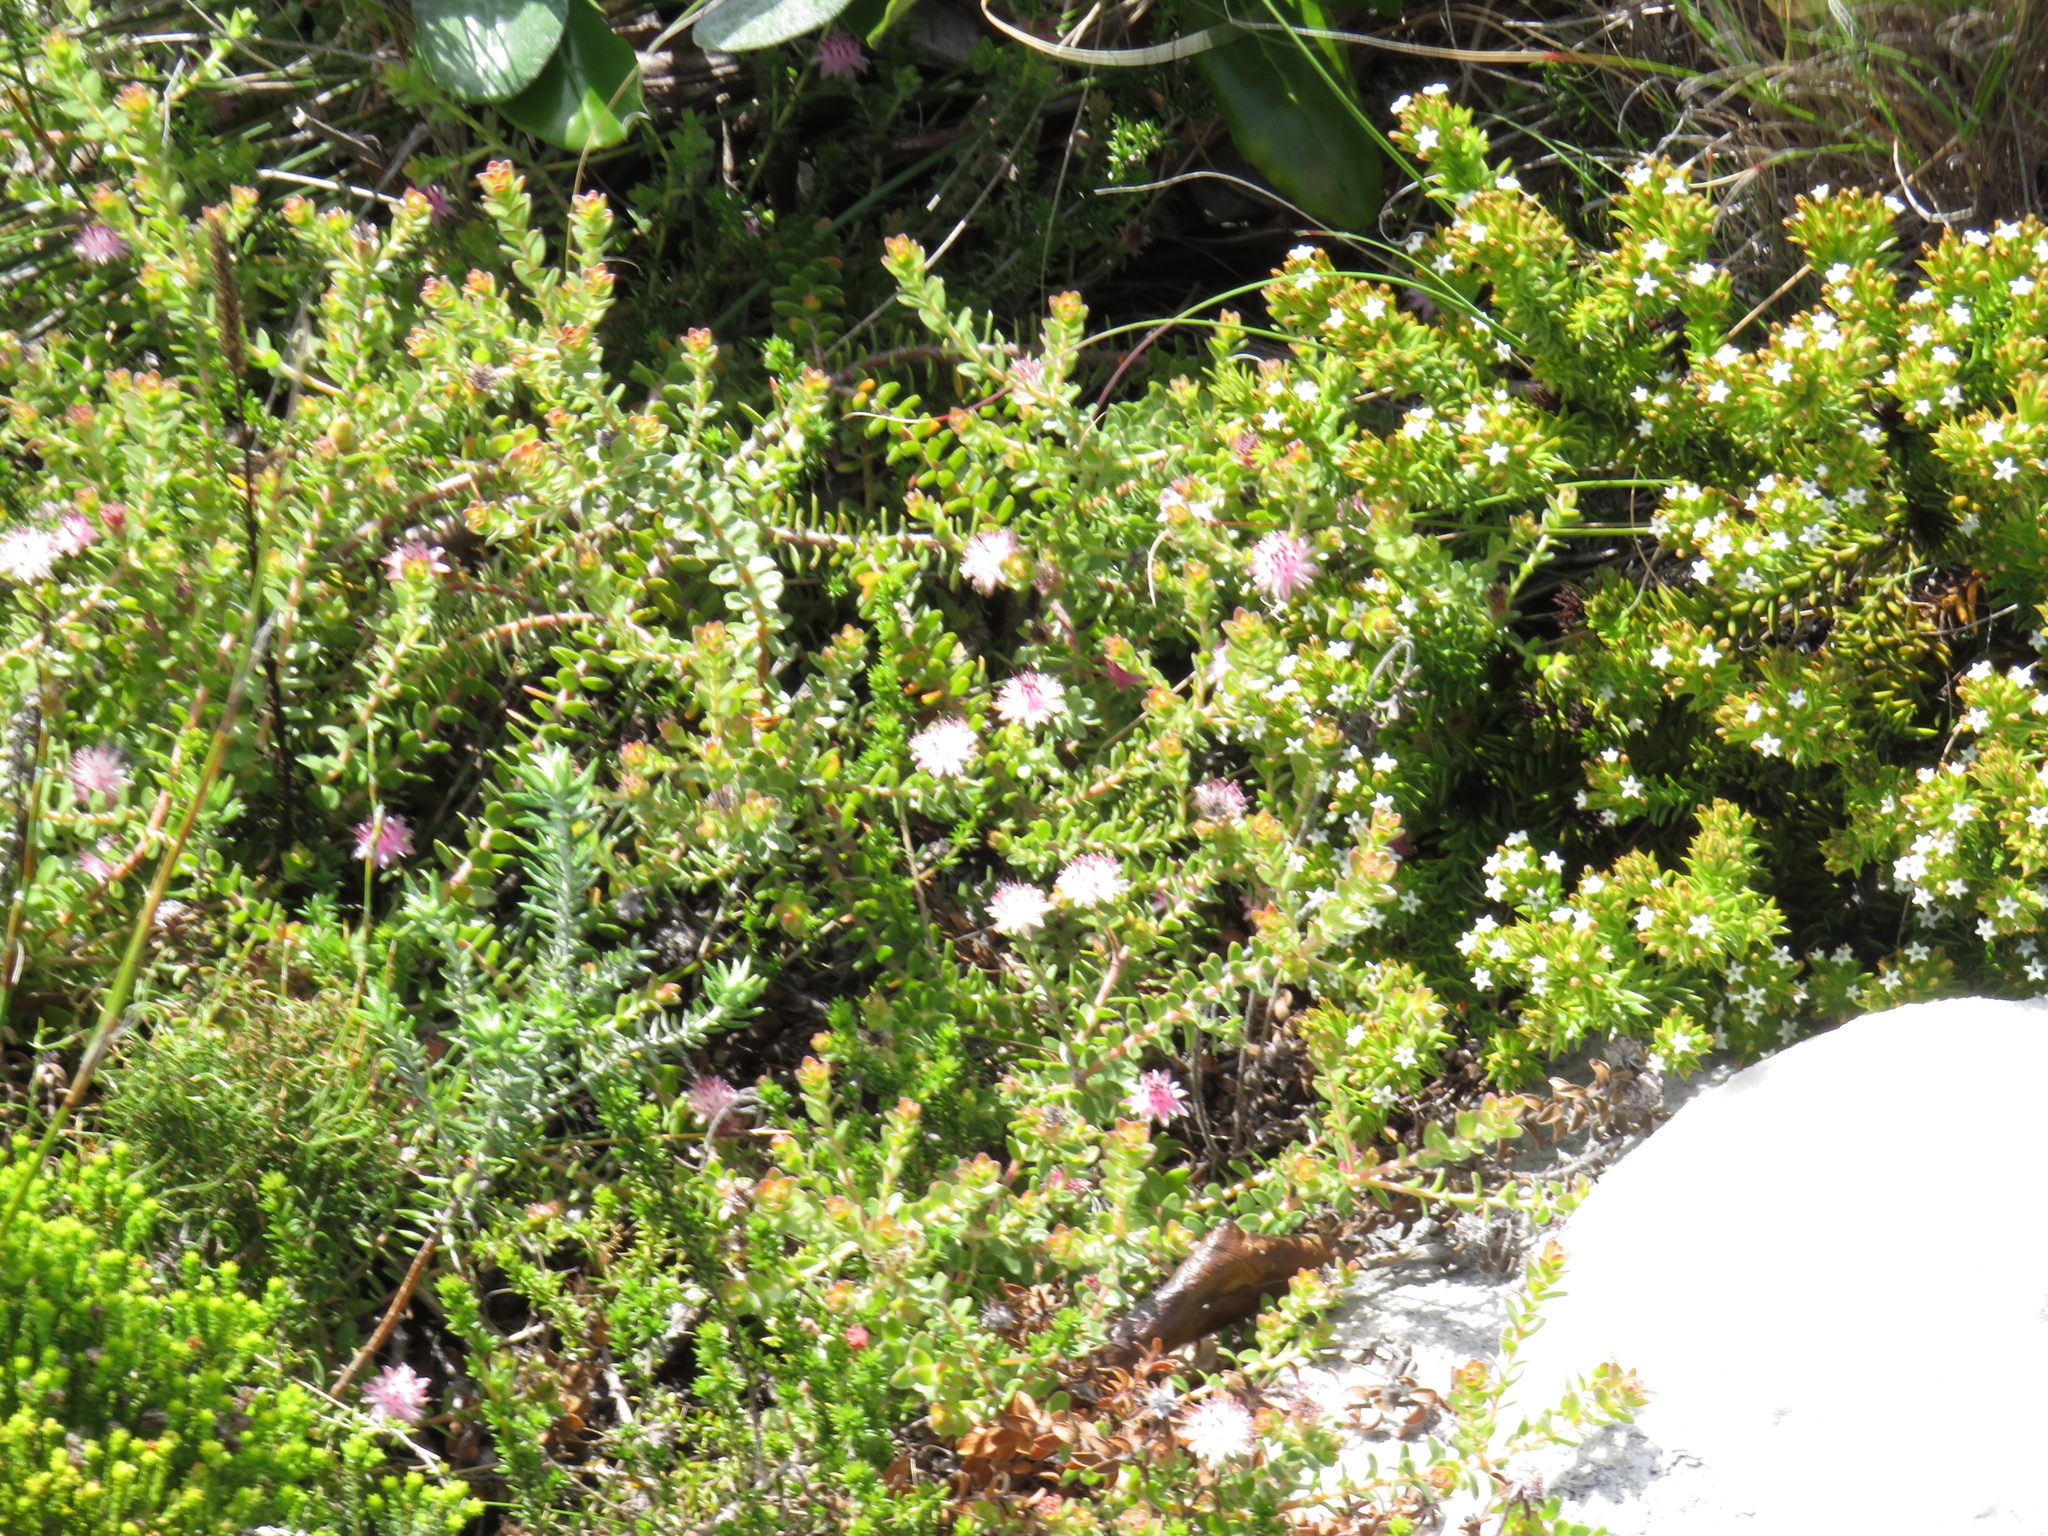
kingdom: Plantae
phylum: Tracheophyta
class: Magnoliopsida
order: Proteales
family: Proteaceae
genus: Diastella
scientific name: Diastella divaricata
